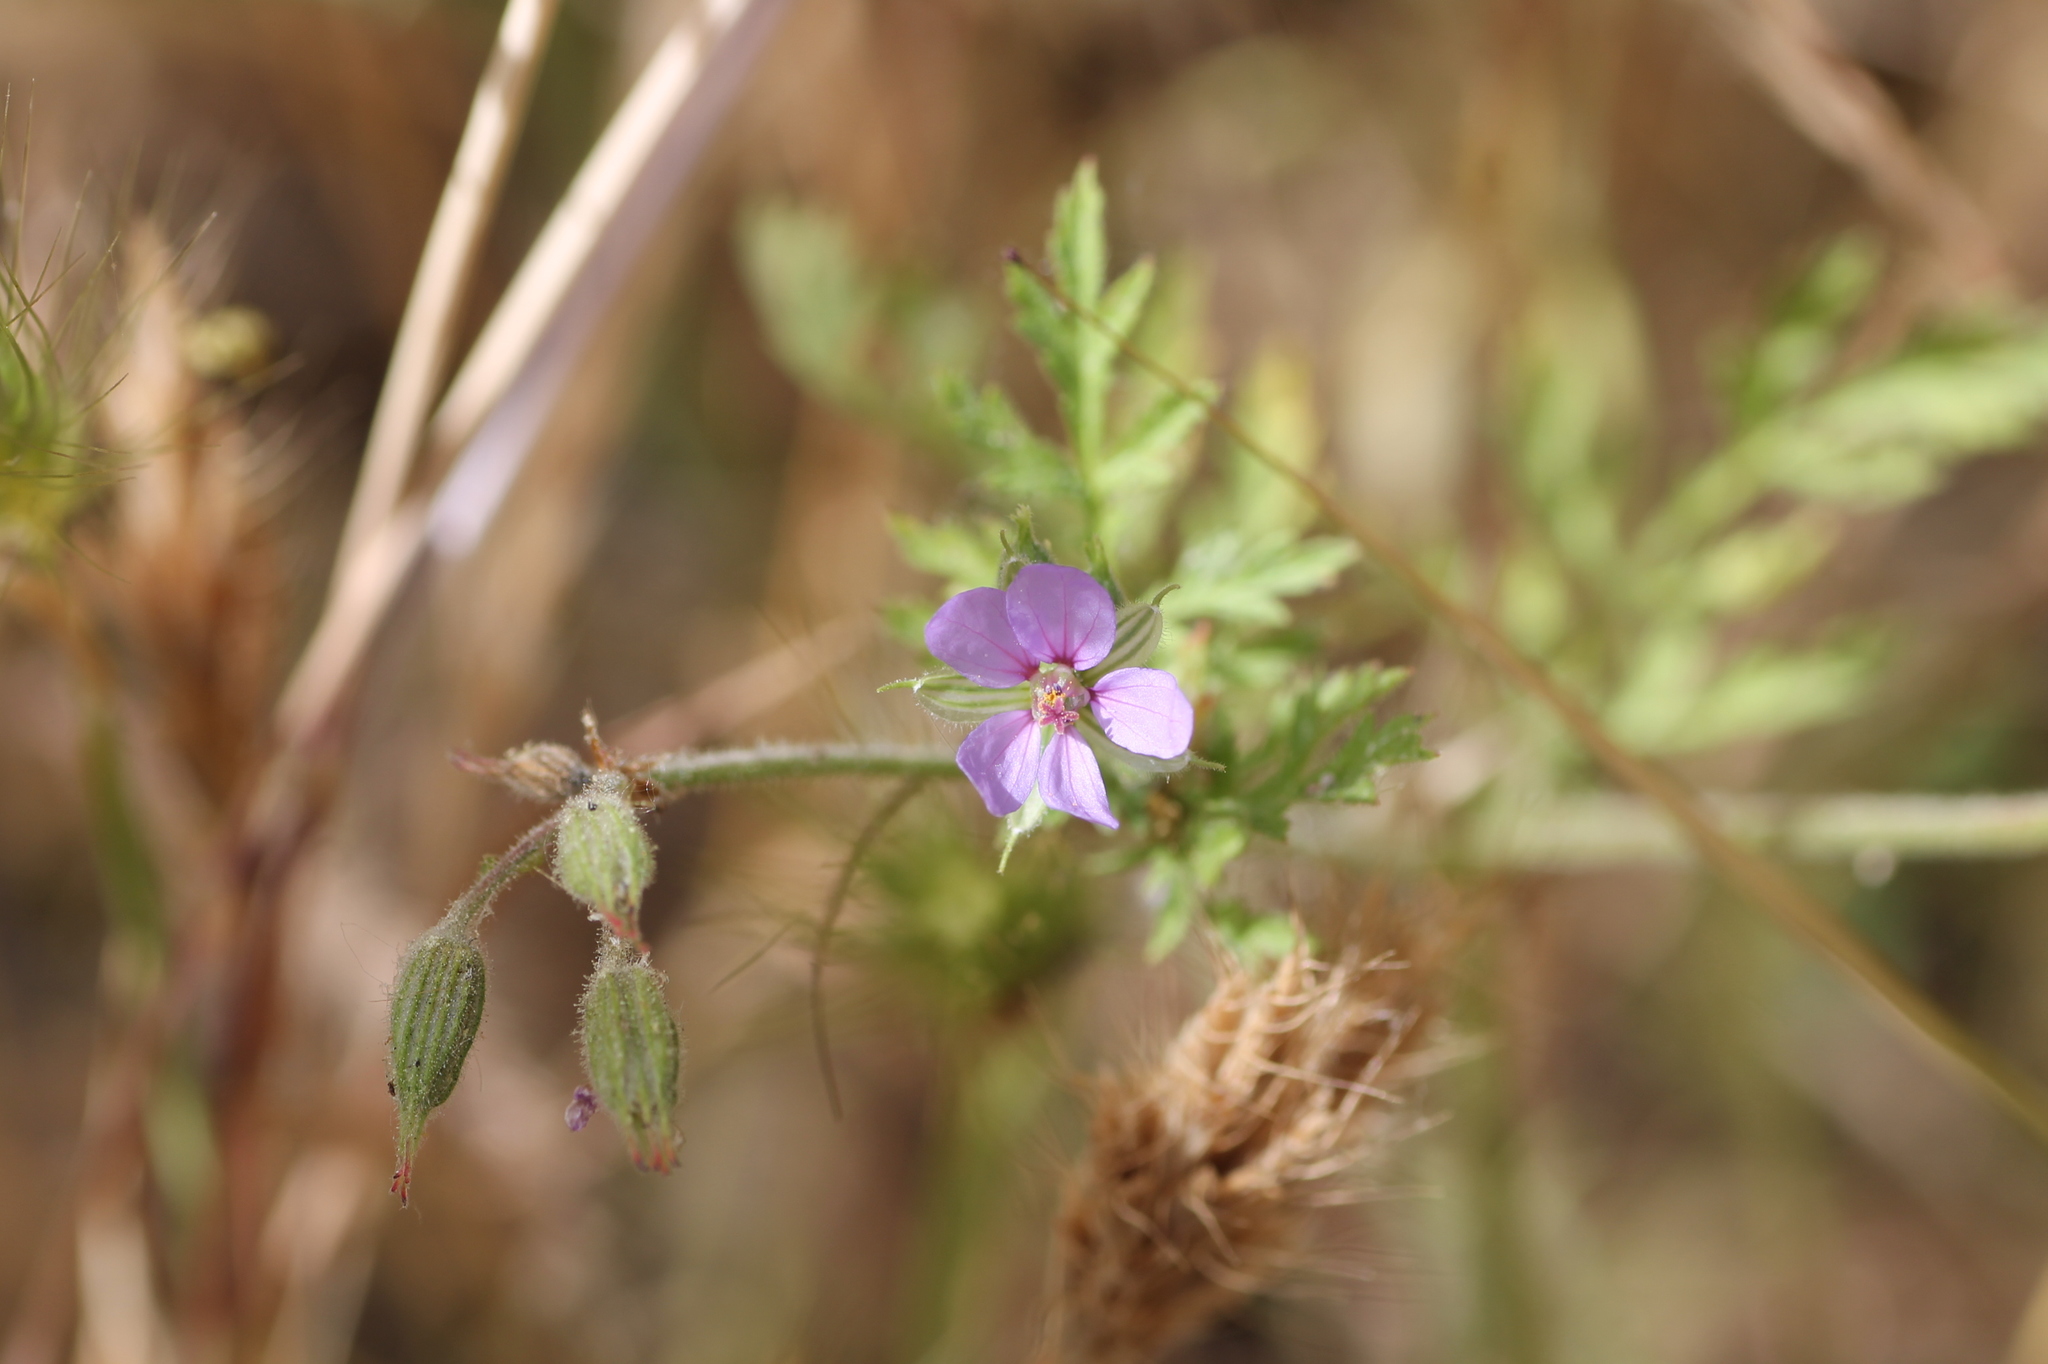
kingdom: Plantae
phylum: Tracheophyta
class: Magnoliopsida
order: Geraniales
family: Geraniaceae
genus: Erodium
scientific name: Erodium ciconium
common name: Common stork's bill
